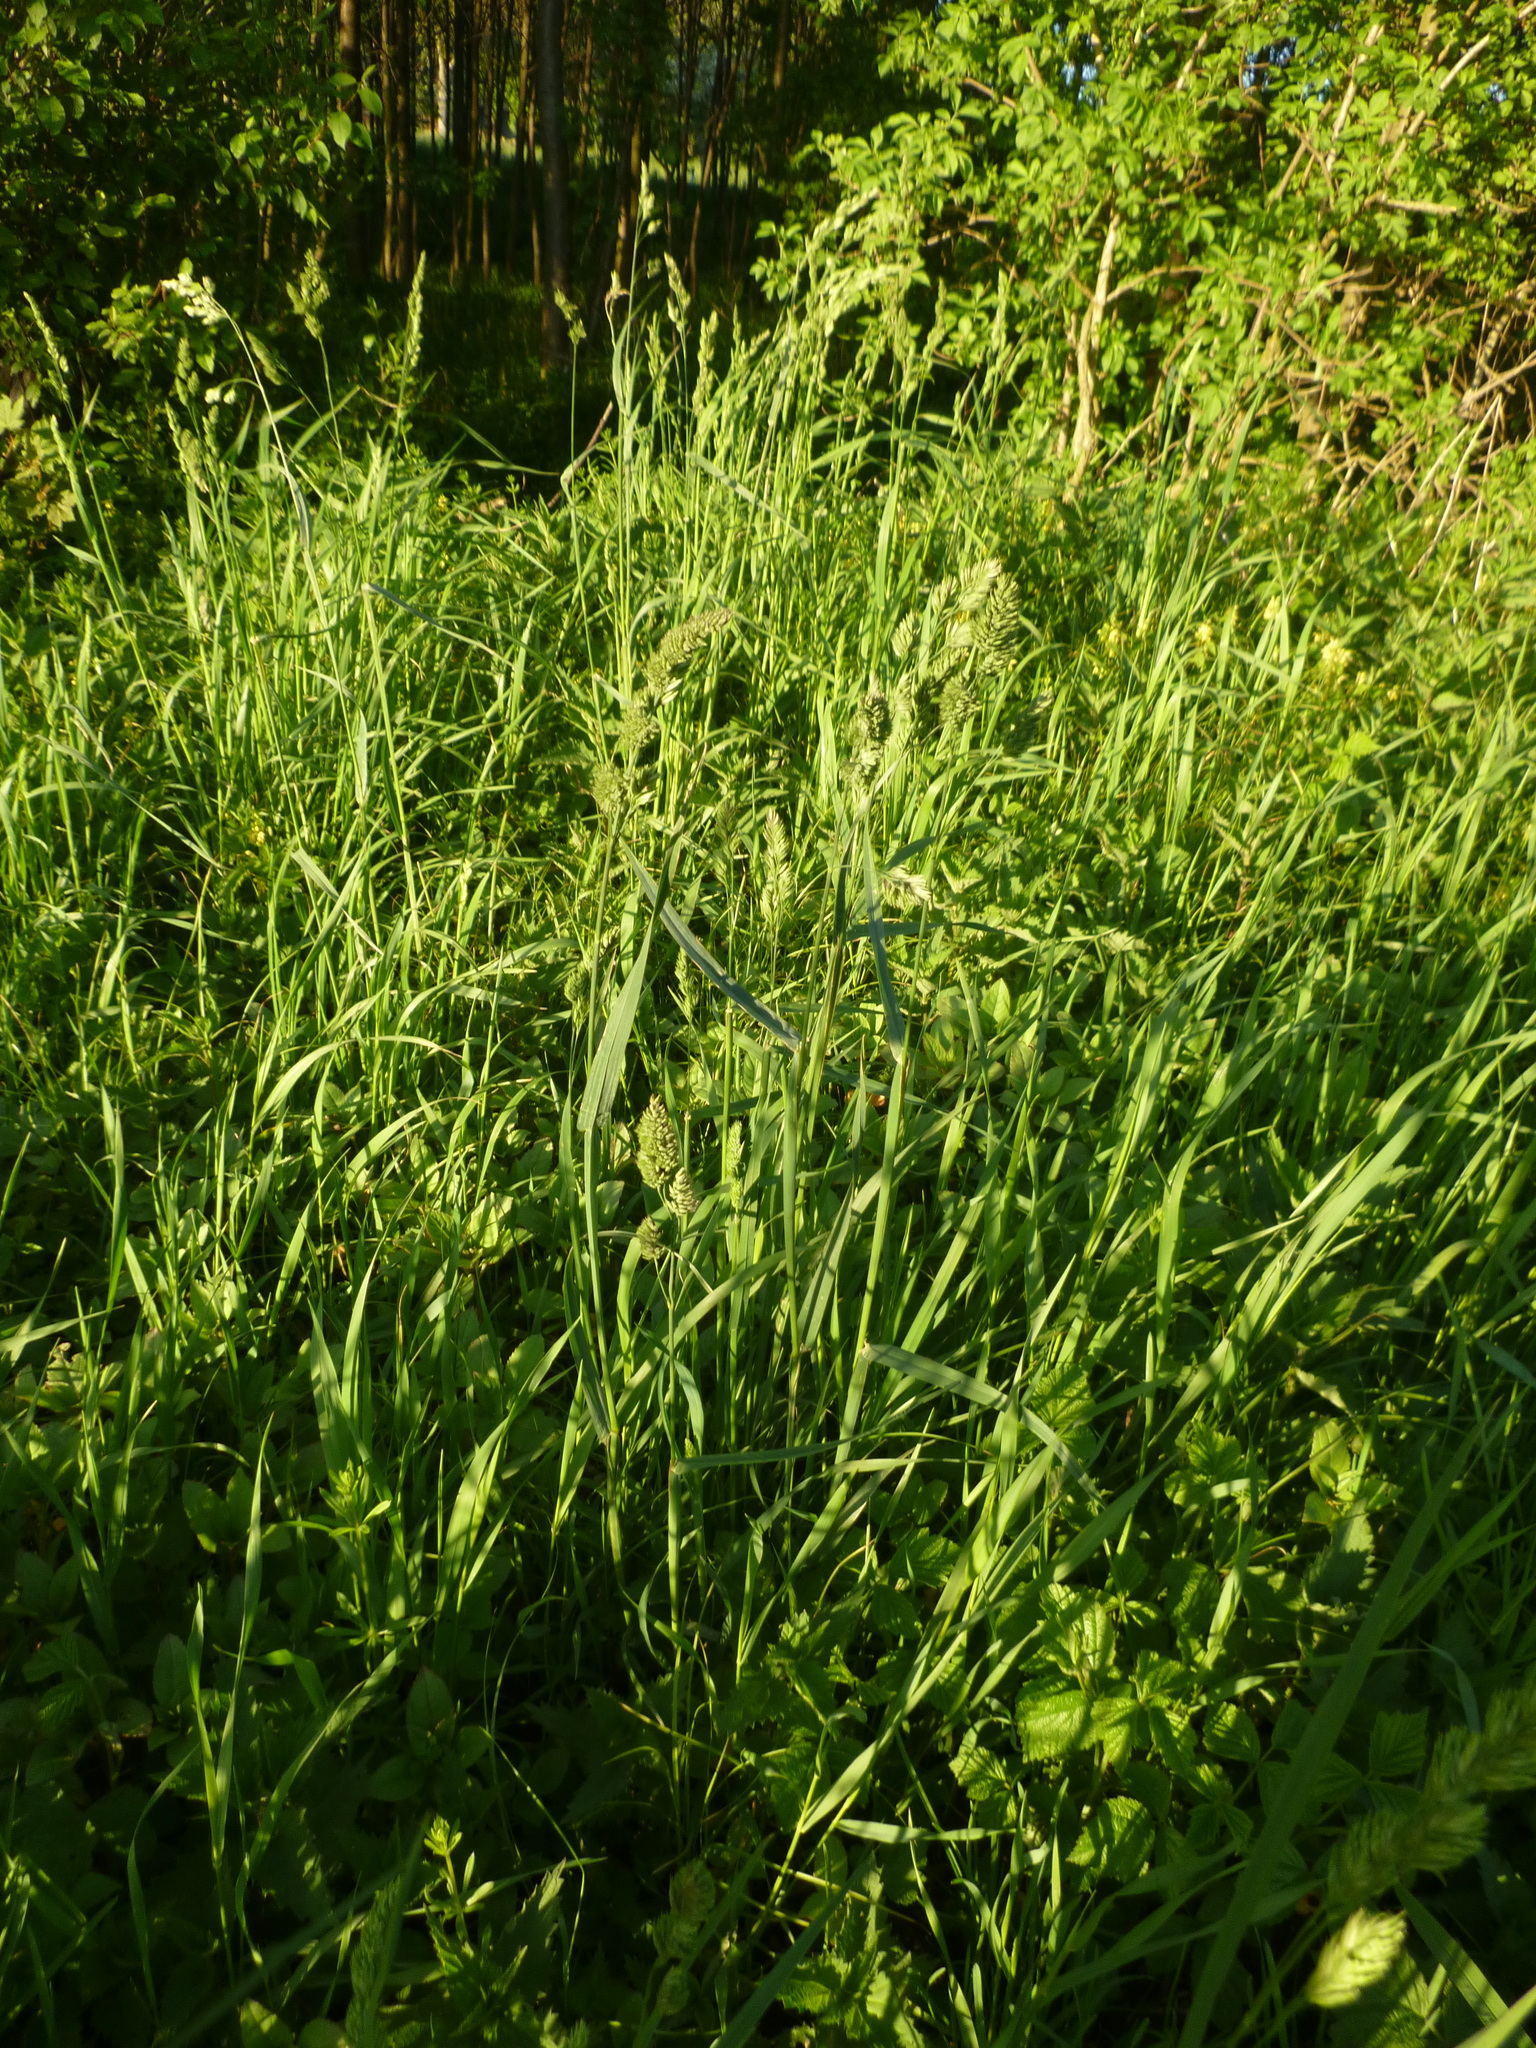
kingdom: Plantae
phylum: Tracheophyta
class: Liliopsida
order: Poales
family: Poaceae
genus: Dactylis
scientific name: Dactylis glomerata
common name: Orchardgrass
